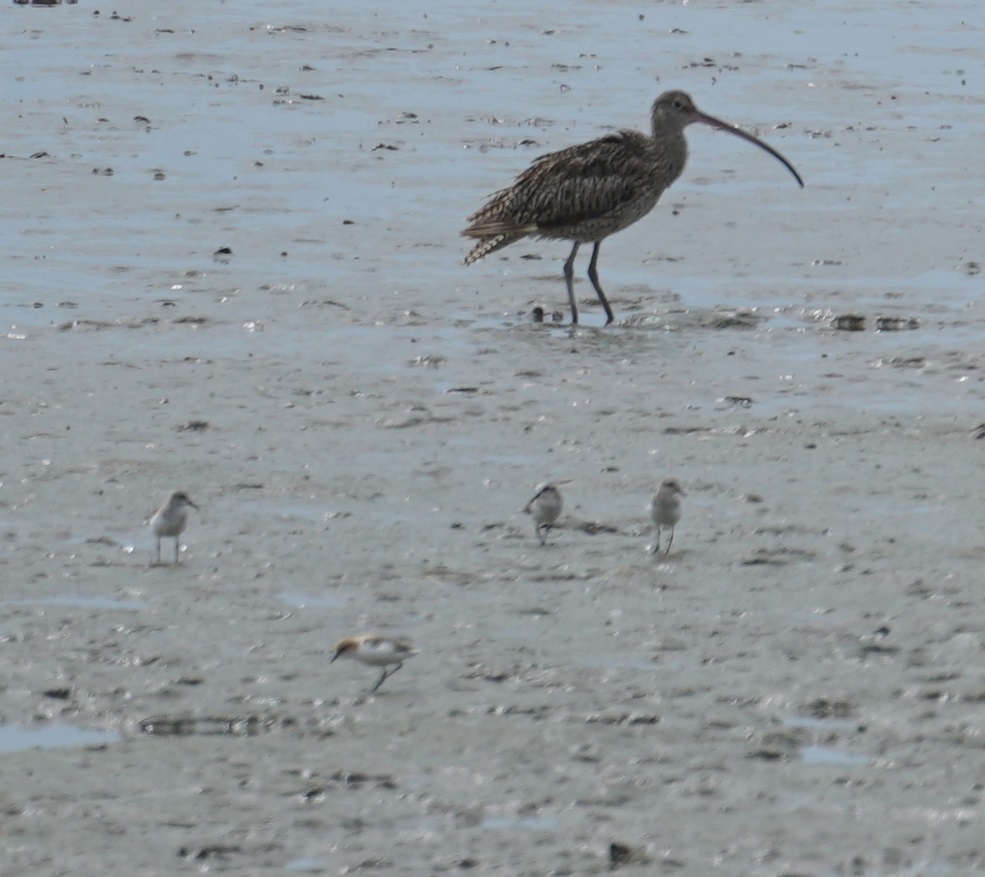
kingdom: Animalia
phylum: Chordata
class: Aves
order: Charadriiformes
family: Scolopacidae
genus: Calidris
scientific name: Calidris ruficollis
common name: Red-necked stint
